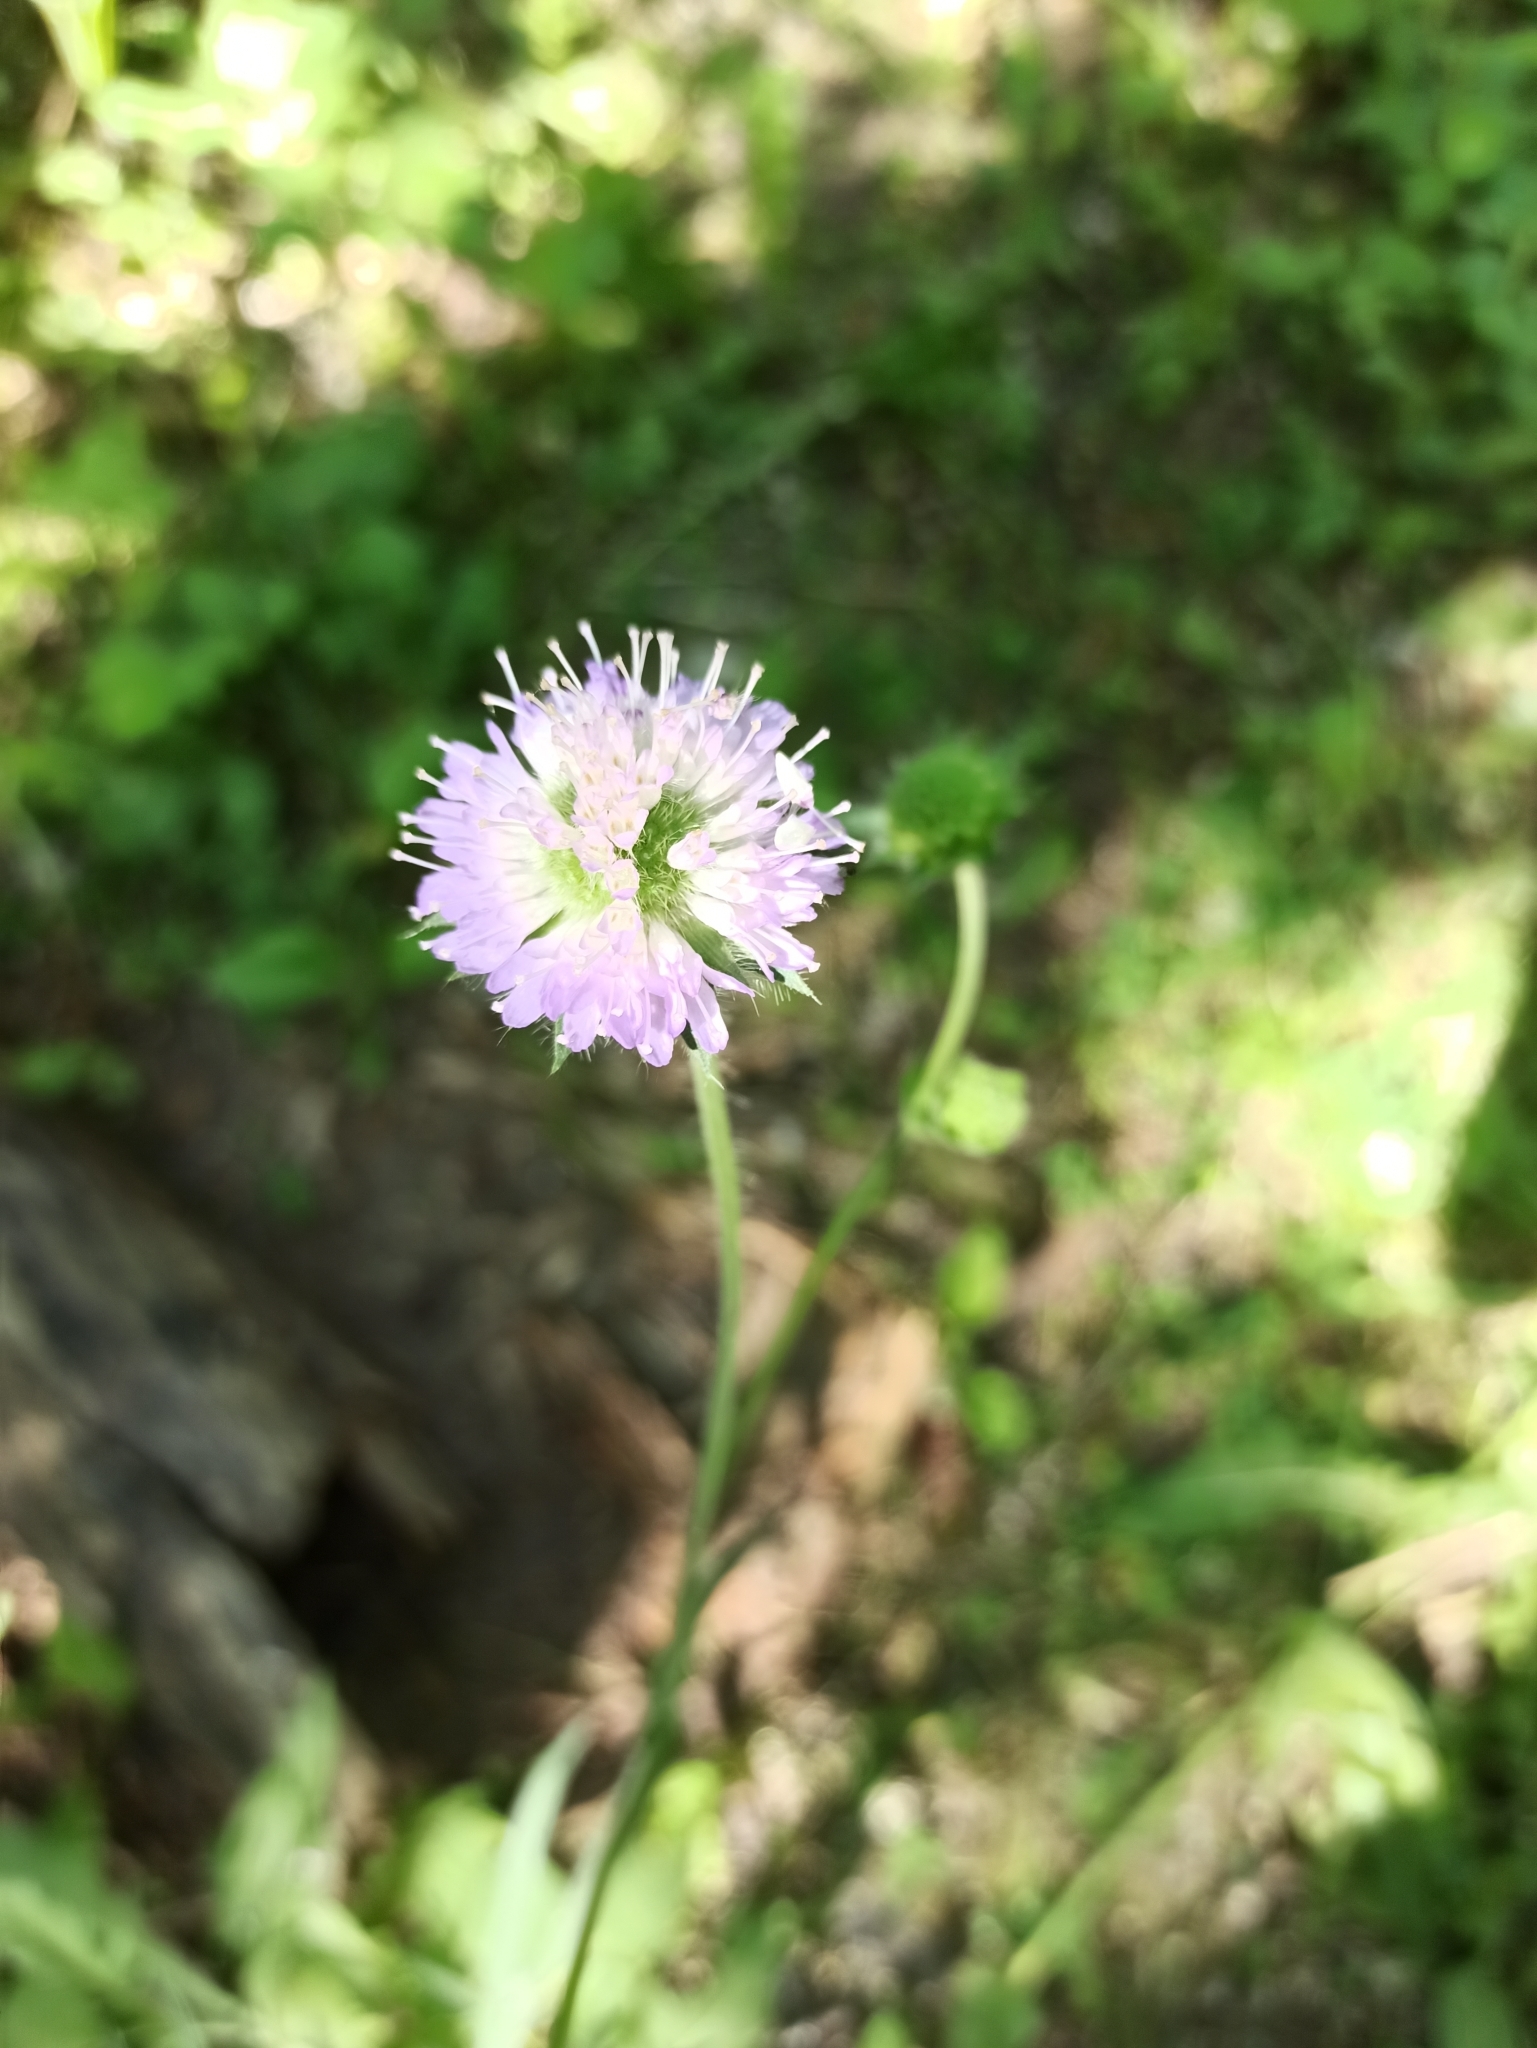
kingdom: Plantae
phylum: Tracheophyta
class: Magnoliopsida
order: Dipsacales
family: Caprifoliaceae
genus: Knautia
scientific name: Knautia arvensis
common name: Field scabiosa
